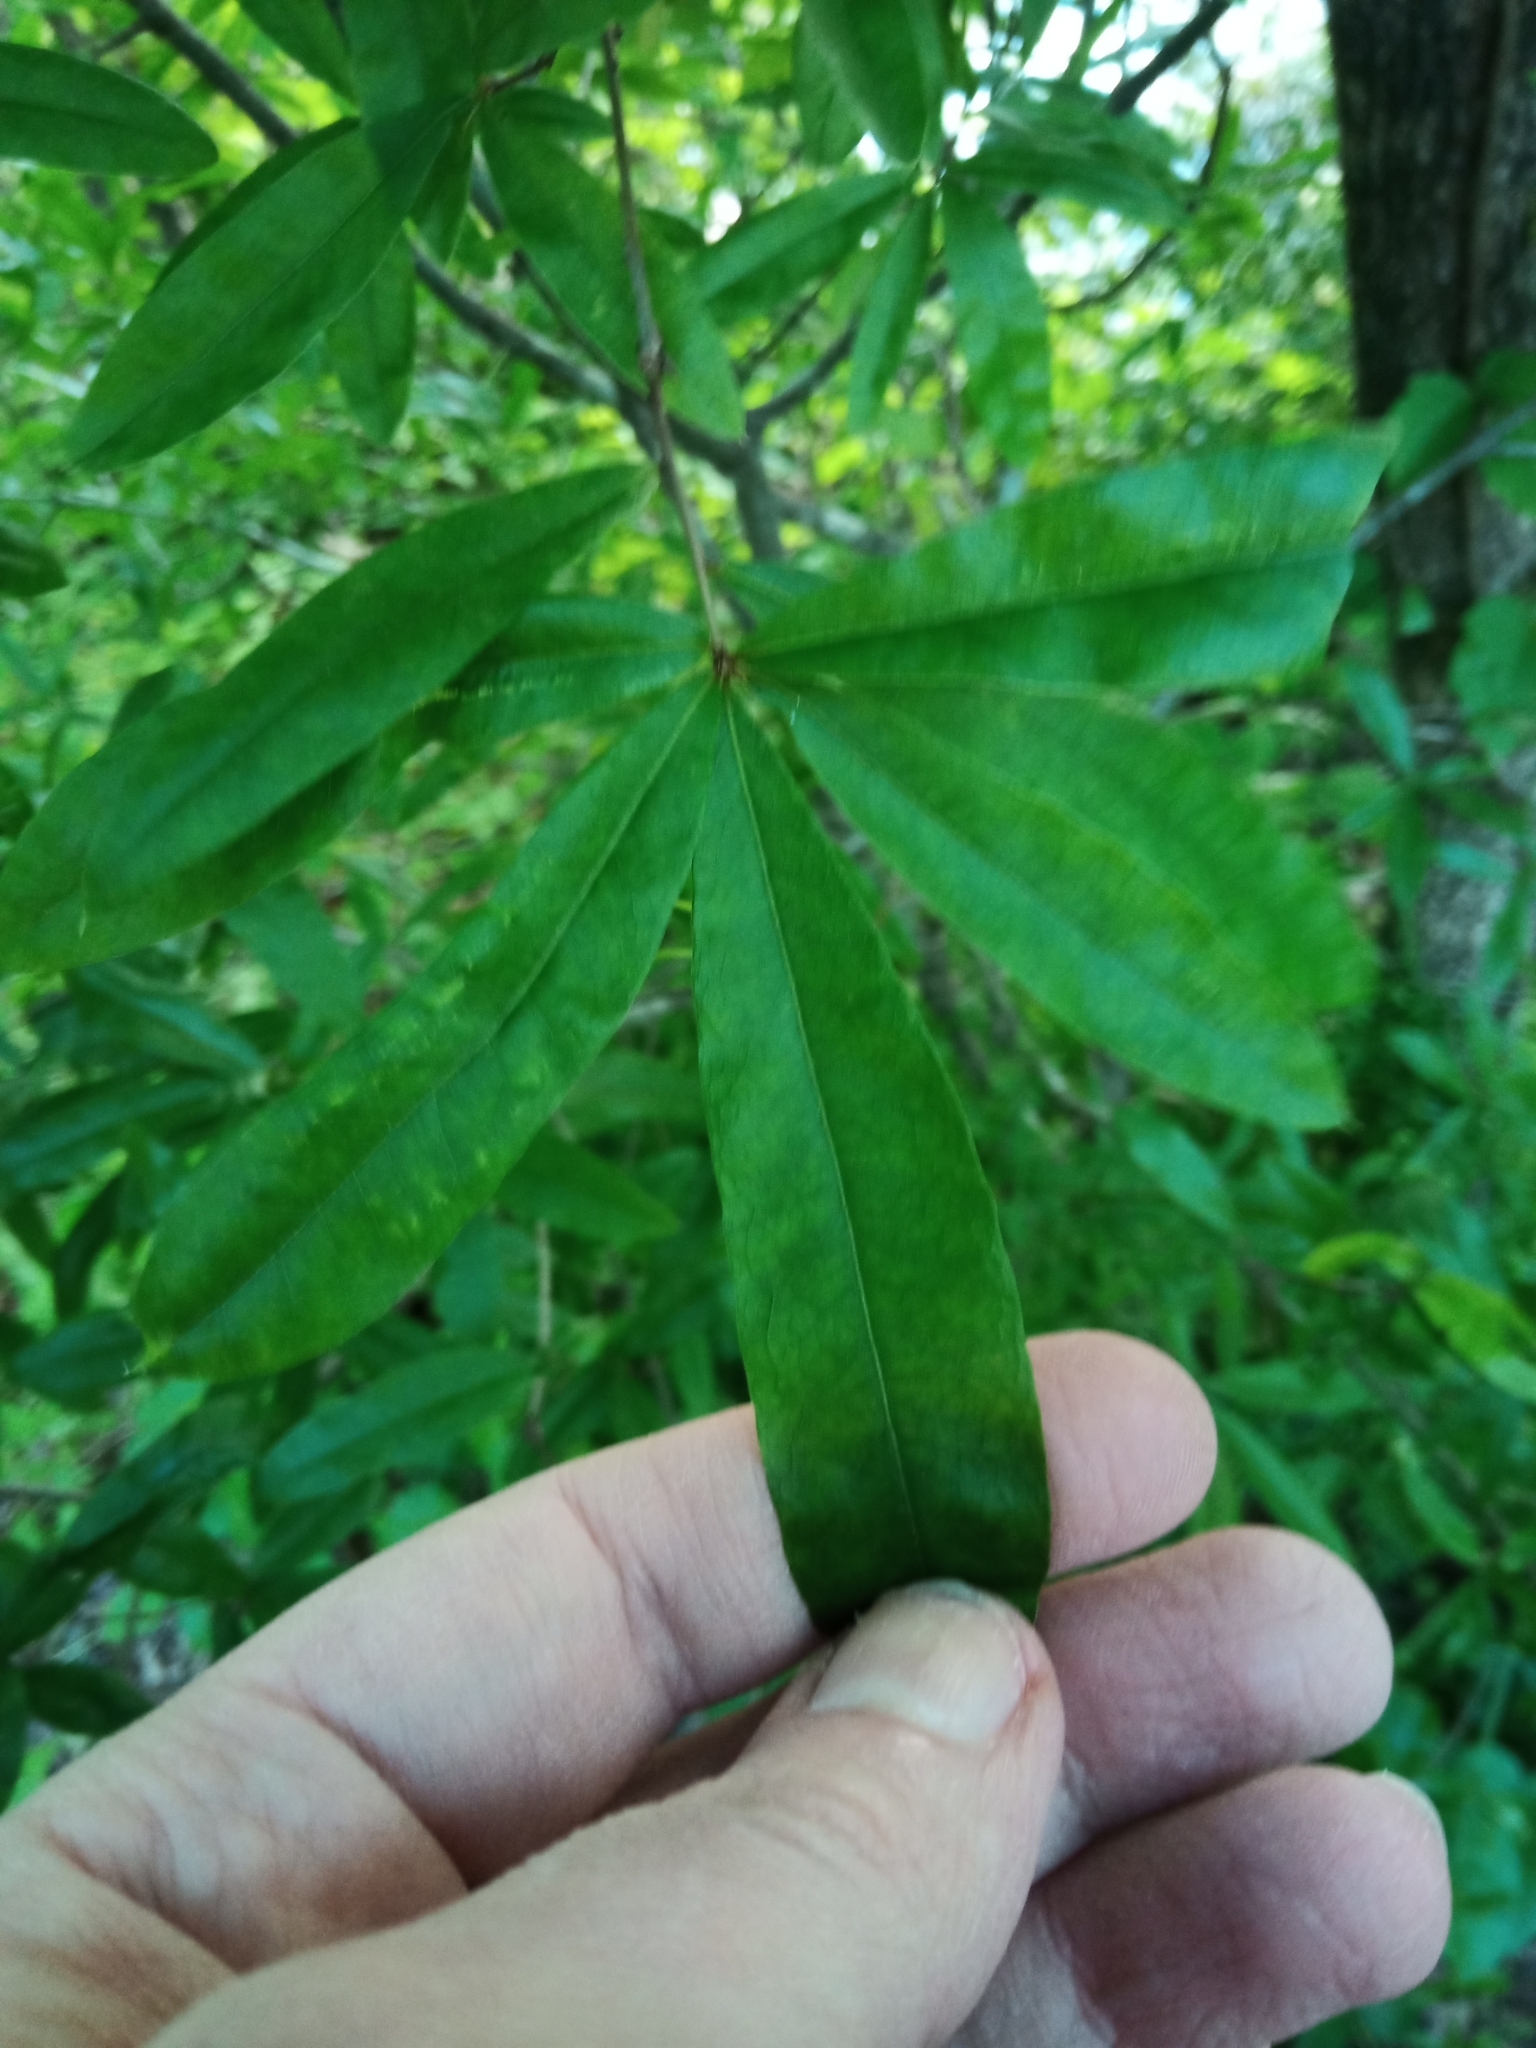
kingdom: Plantae
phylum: Tracheophyta
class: Magnoliopsida
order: Fagales
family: Fagaceae
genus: Quercus
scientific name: Quercus phellos
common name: Willow oak
